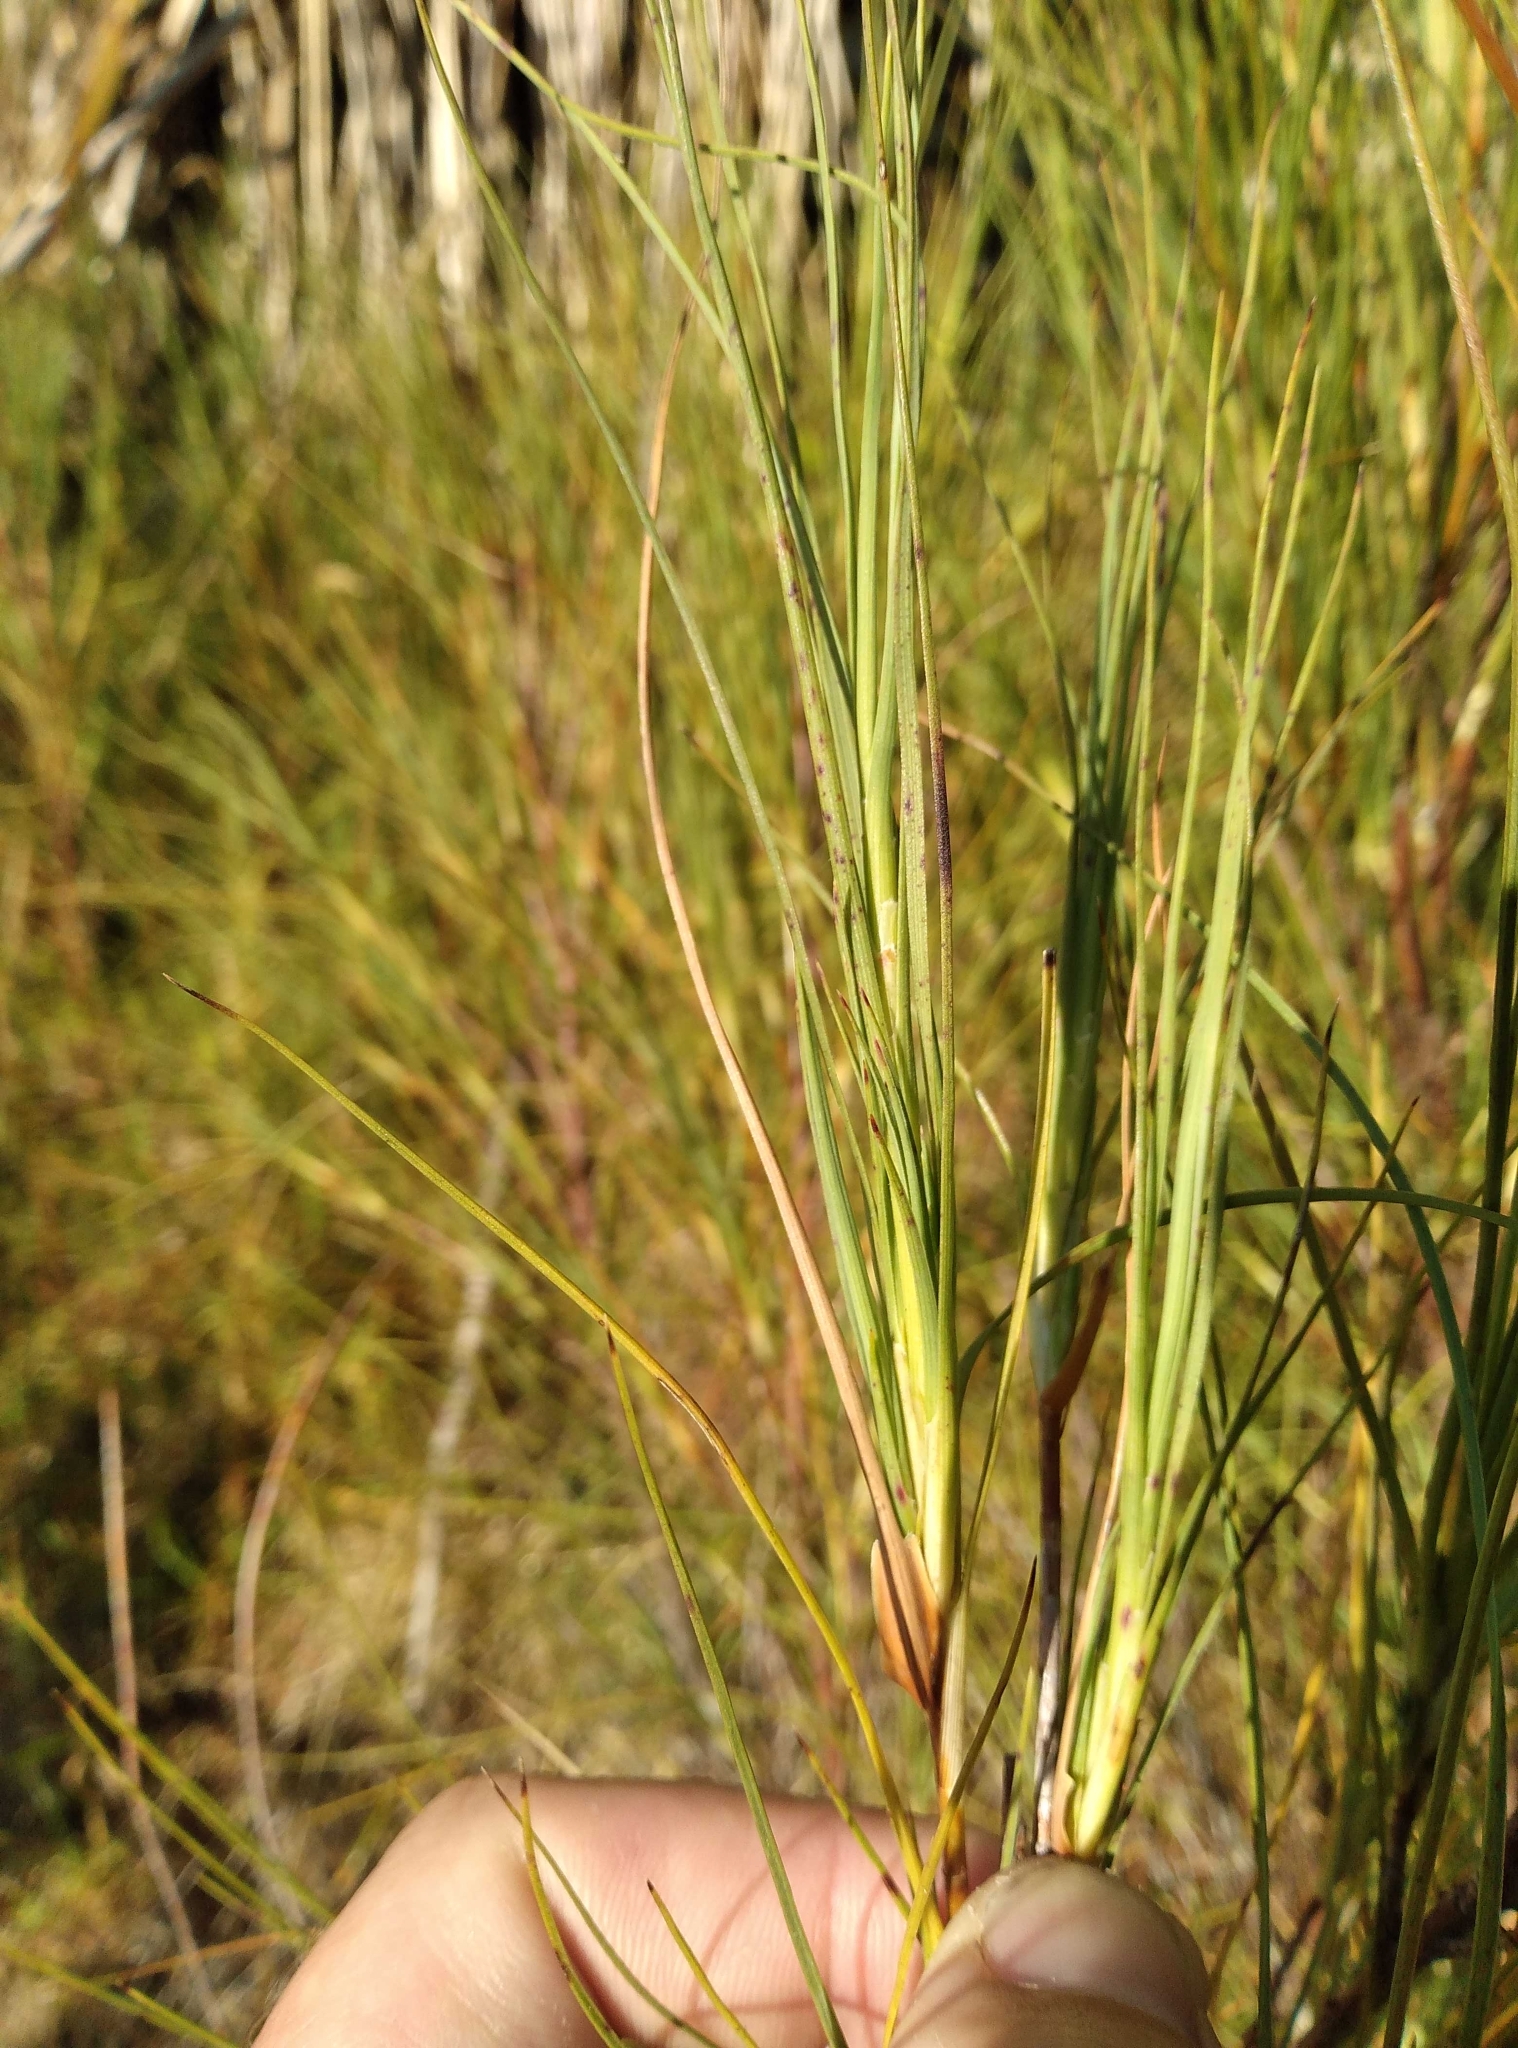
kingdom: Plantae
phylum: Tracheophyta
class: Magnoliopsida
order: Ericales
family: Ericaceae
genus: Dracophyllum
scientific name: Dracophyllum acerosum
